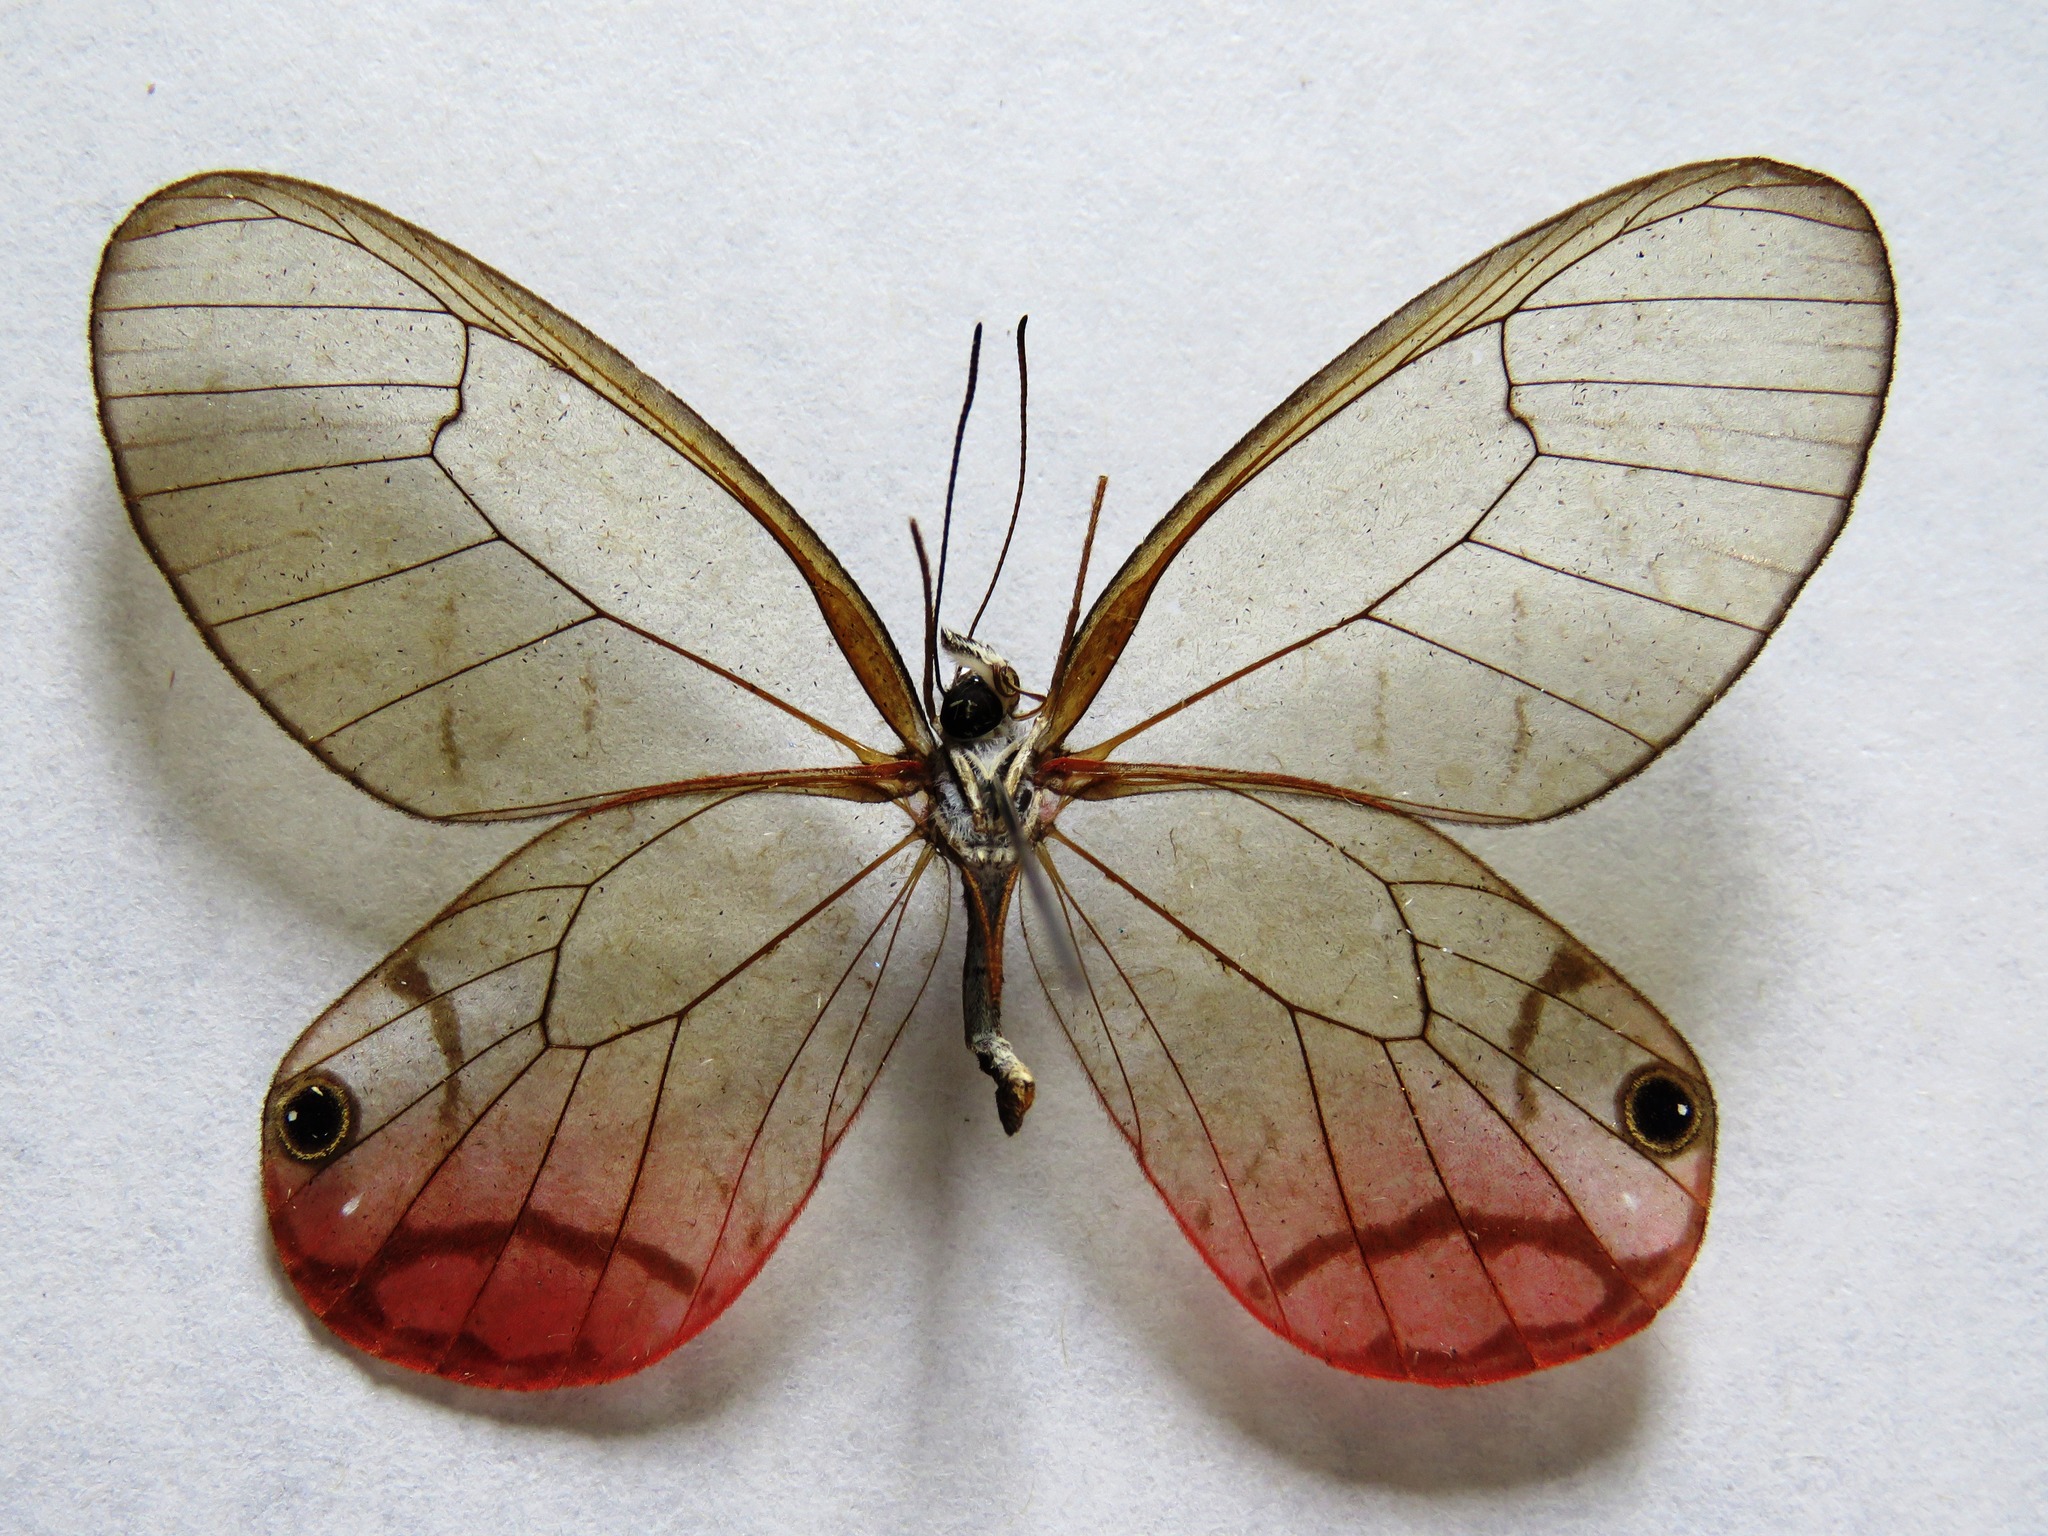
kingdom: Animalia
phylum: Arthropoda
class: Insecta
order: Lepidoptera
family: Nymphalidae
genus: Cithaerias
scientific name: Cithaerias pireta
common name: Rusted clearwing-satyr
